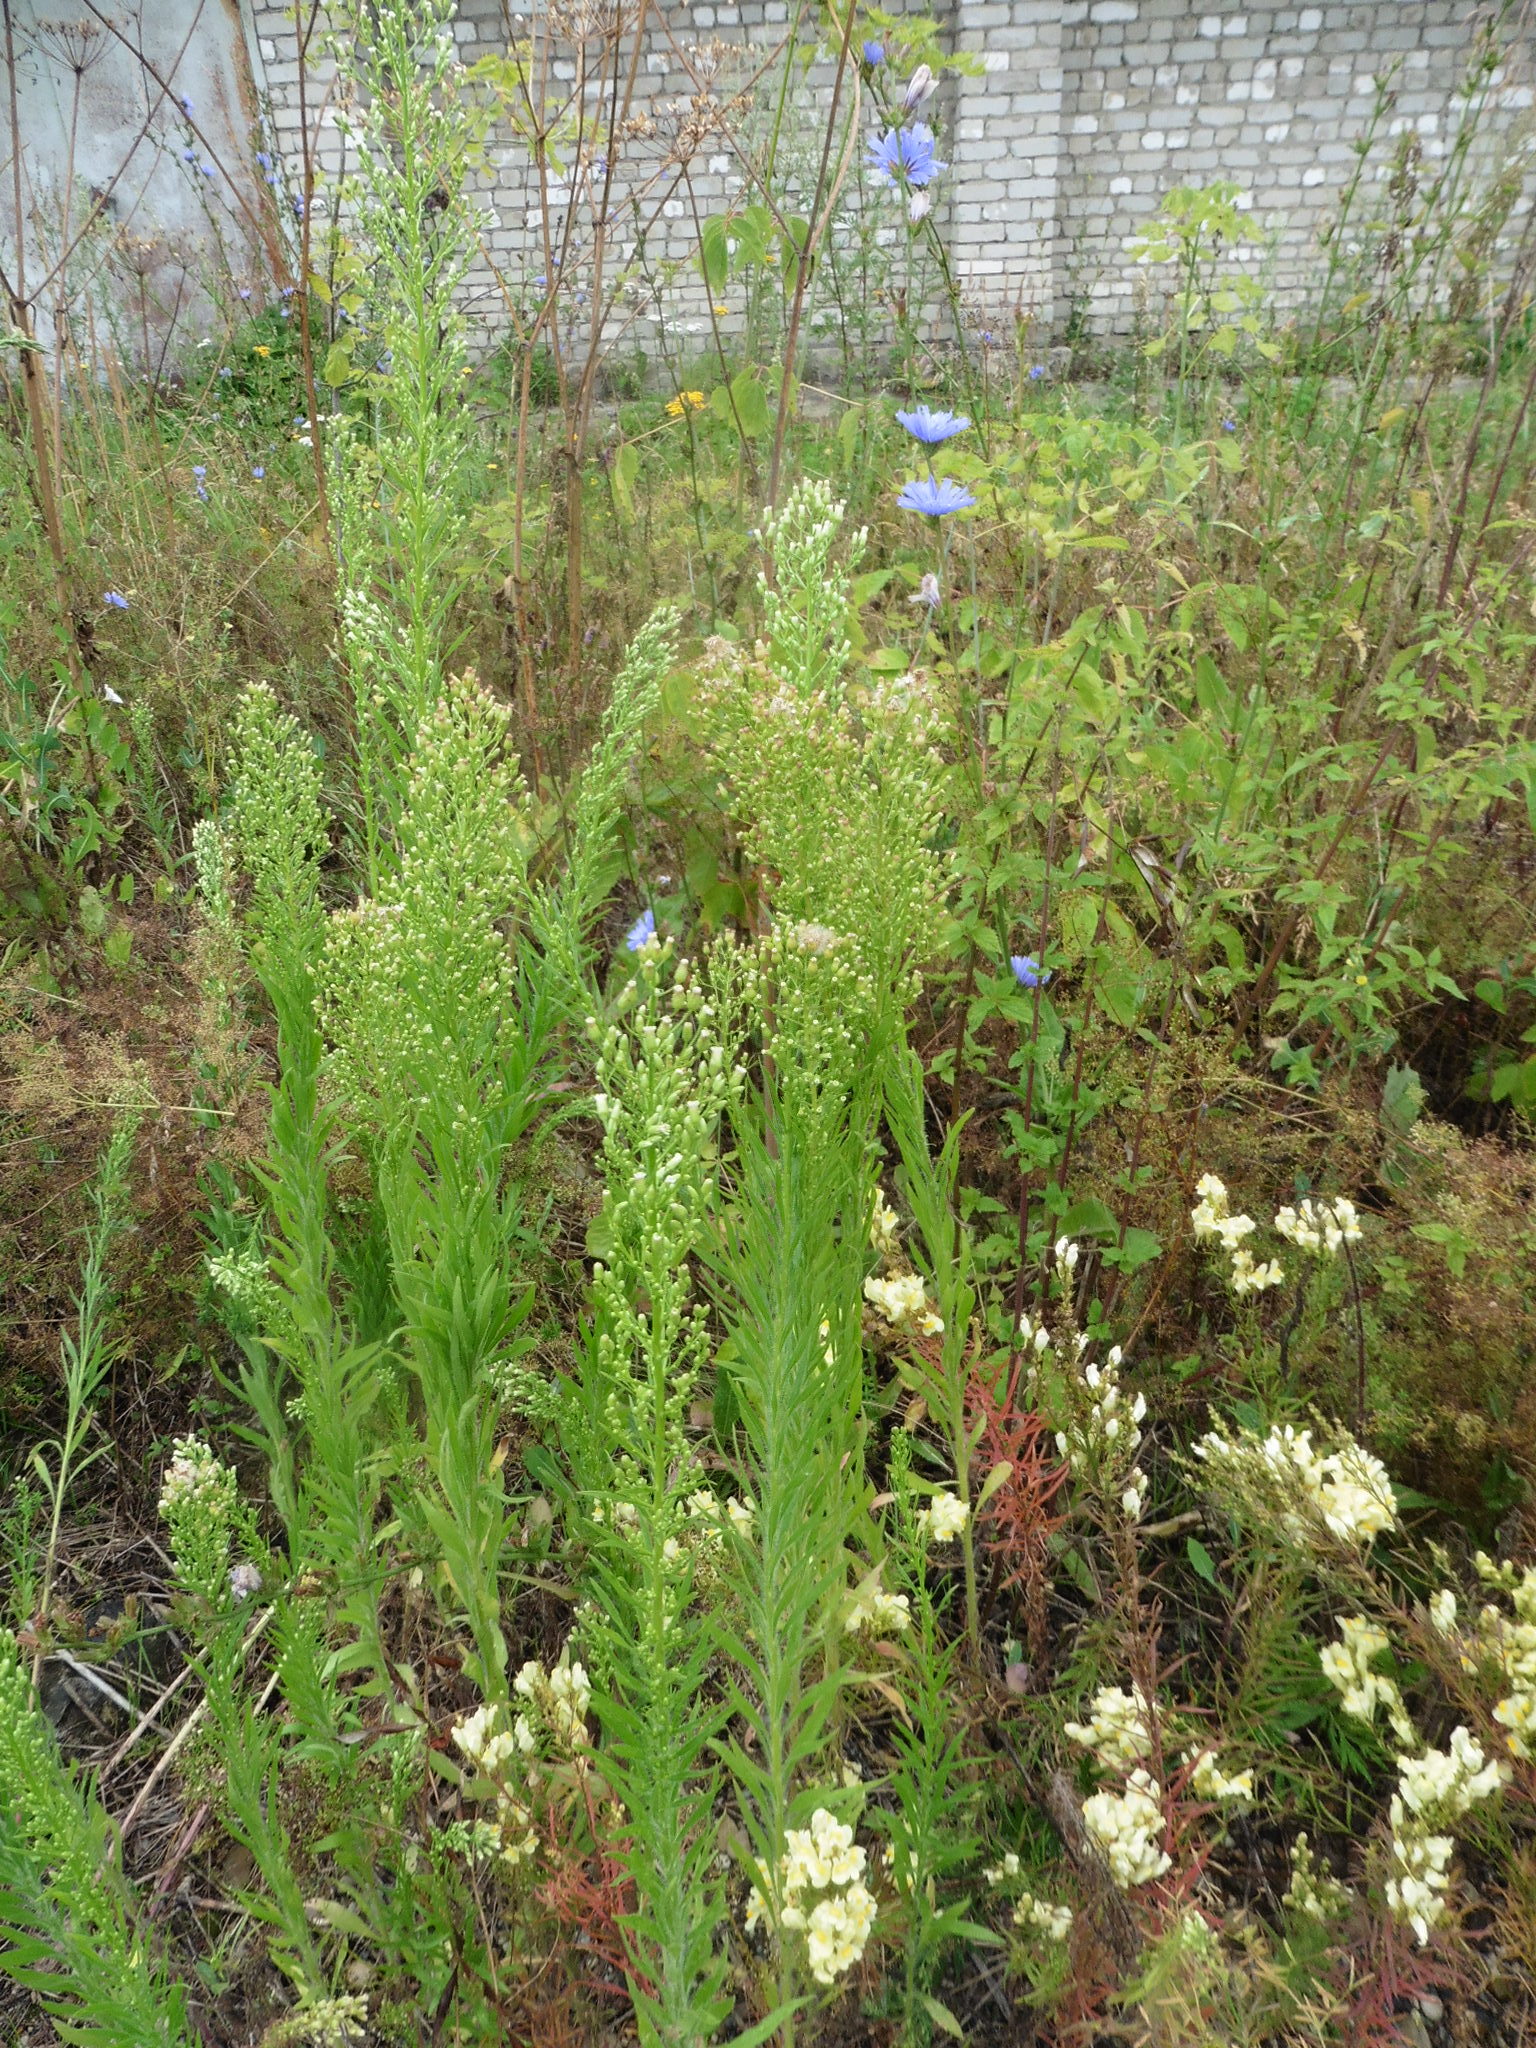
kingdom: Plantae
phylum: Tracheophyta
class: Magnoliopsida
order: Asterales
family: Asteraceae
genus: Erigeron
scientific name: Erigeron canadensis
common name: Canadian fleabane
